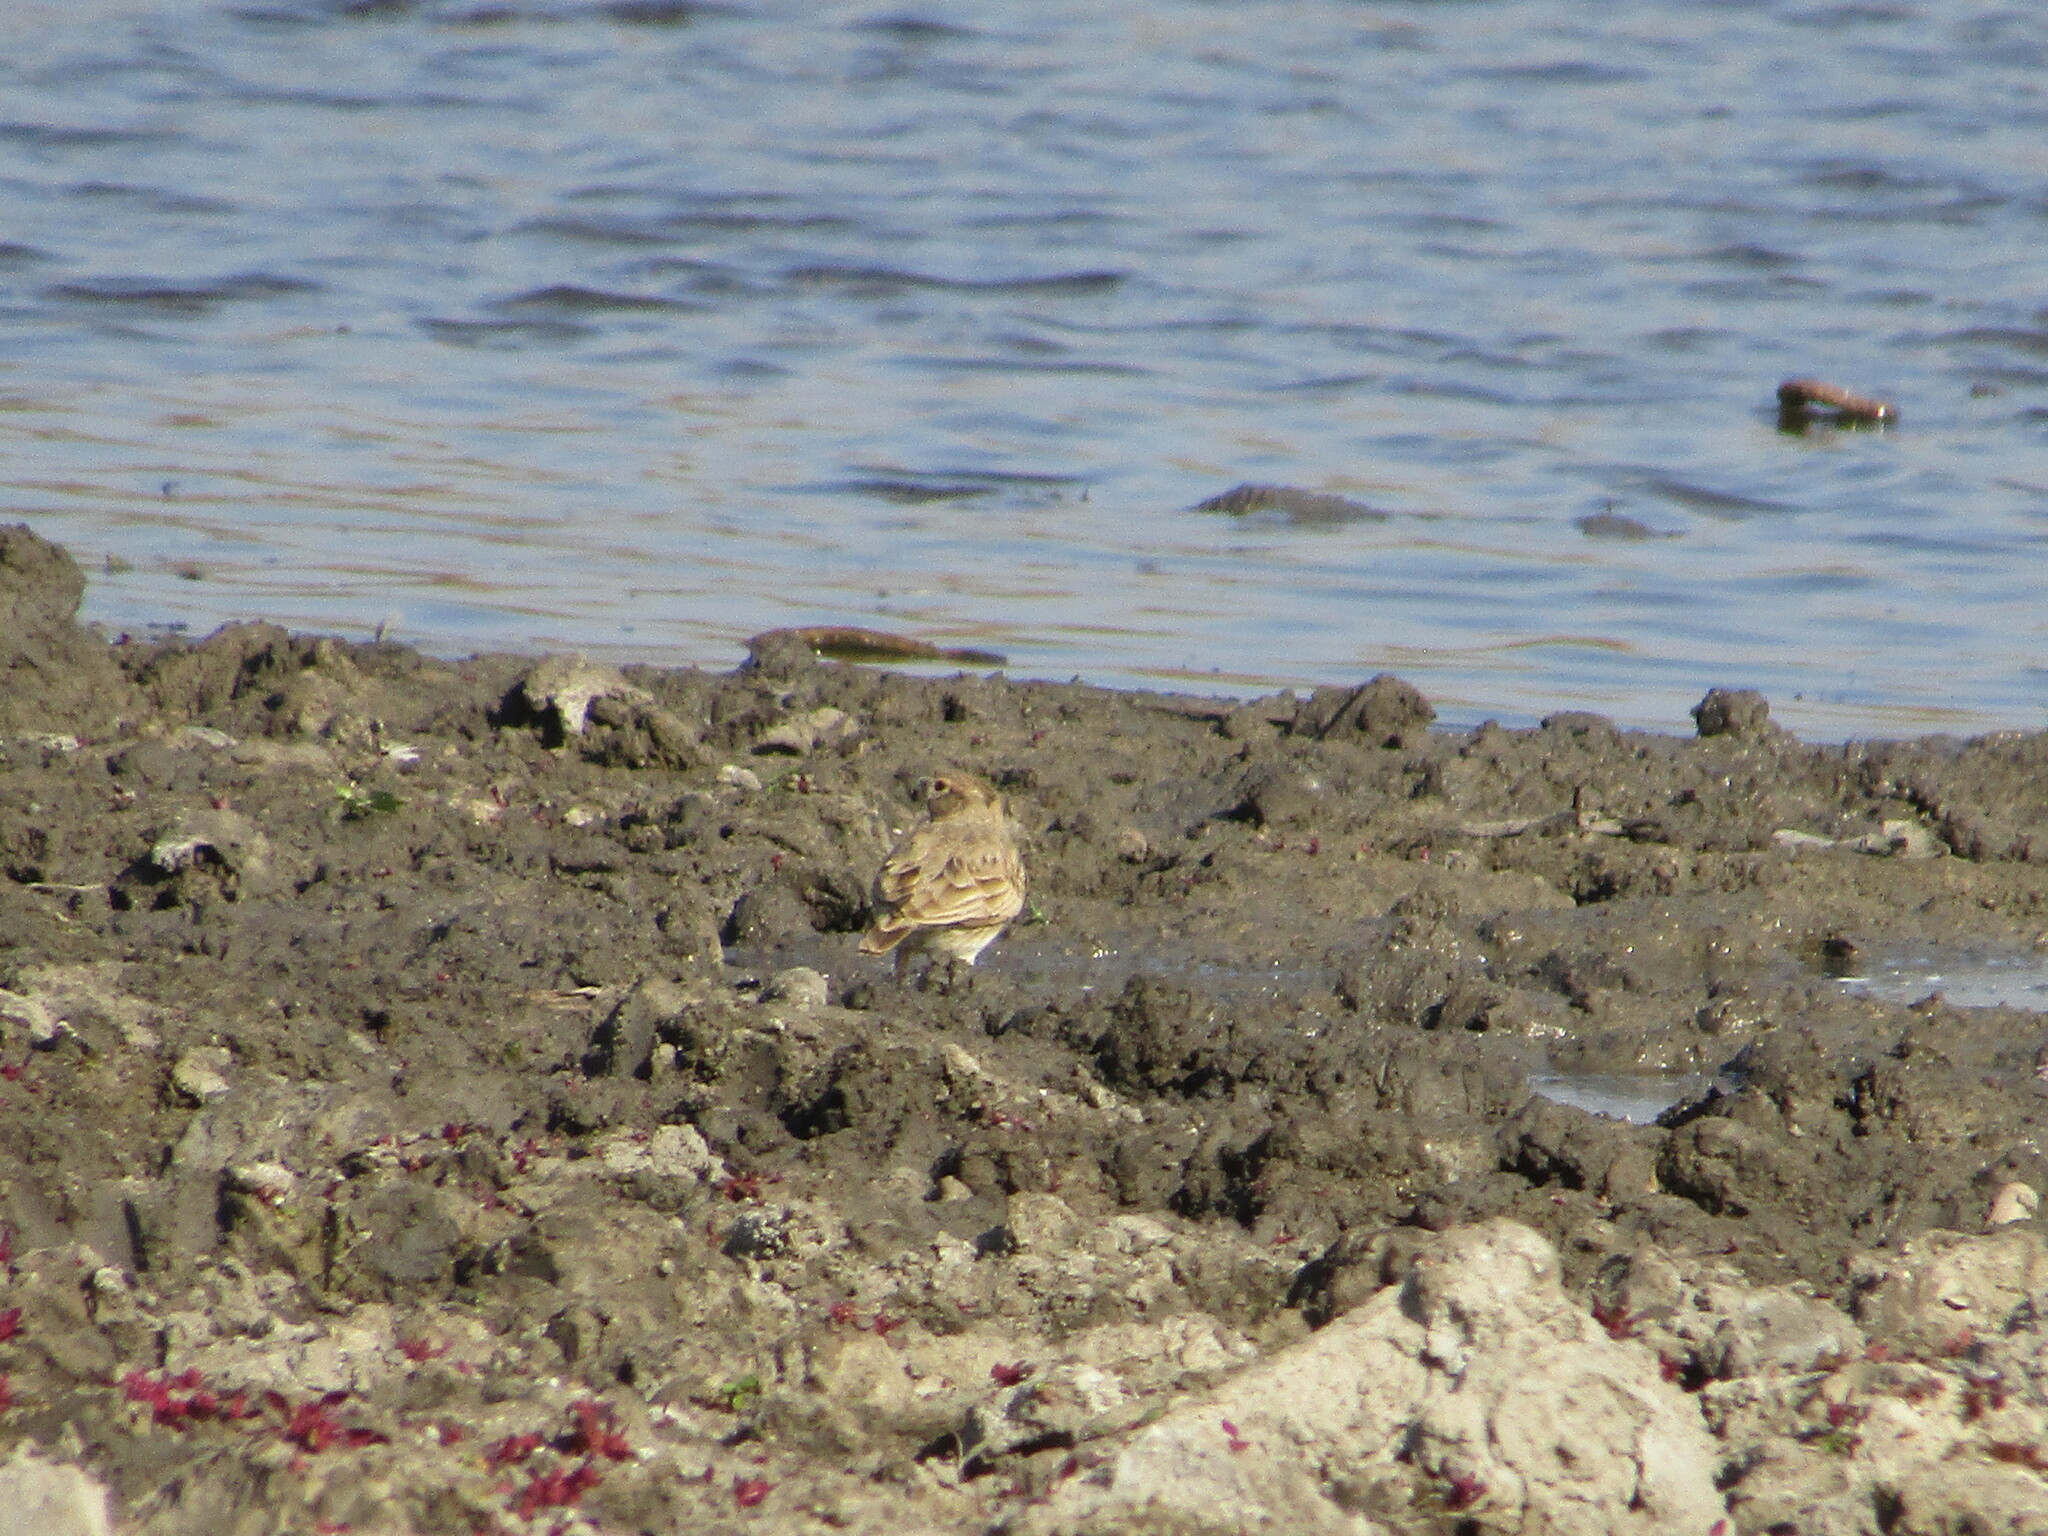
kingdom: Animalia
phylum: Chordata
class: Aves
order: Passeriformes
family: Alaudidae
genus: Galerida
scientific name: Galerida cristata
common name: Crested lark
